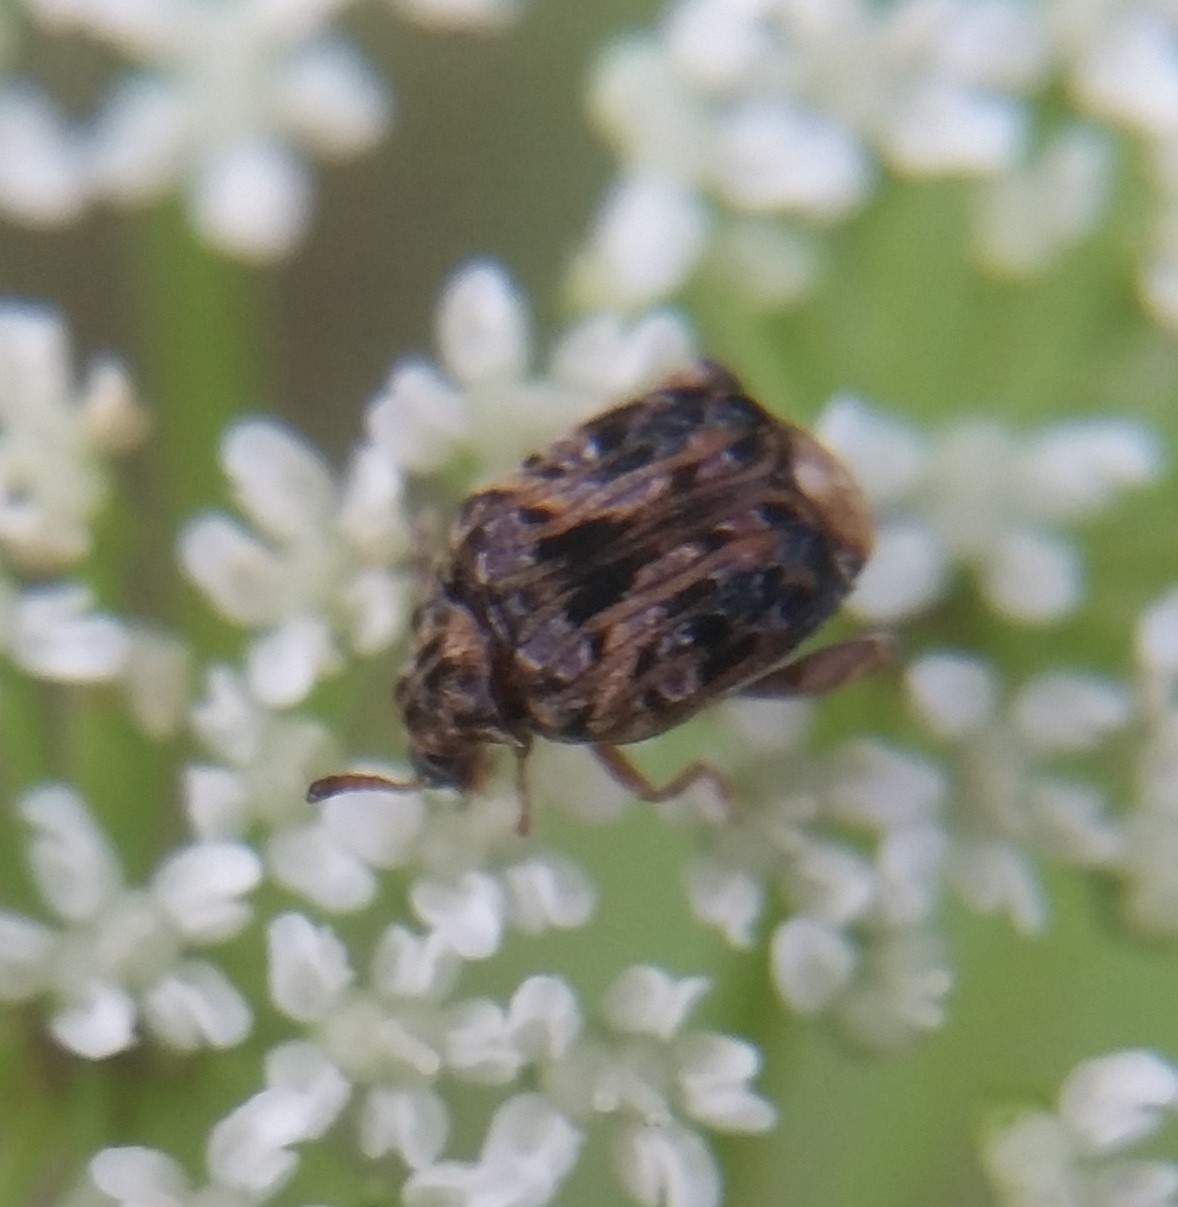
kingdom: Animalia
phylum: Arthropoda
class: Insecta
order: Coleoptera
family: Chrysomelidae
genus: Gibbobruchus
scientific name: Gibbobruchus mimus
